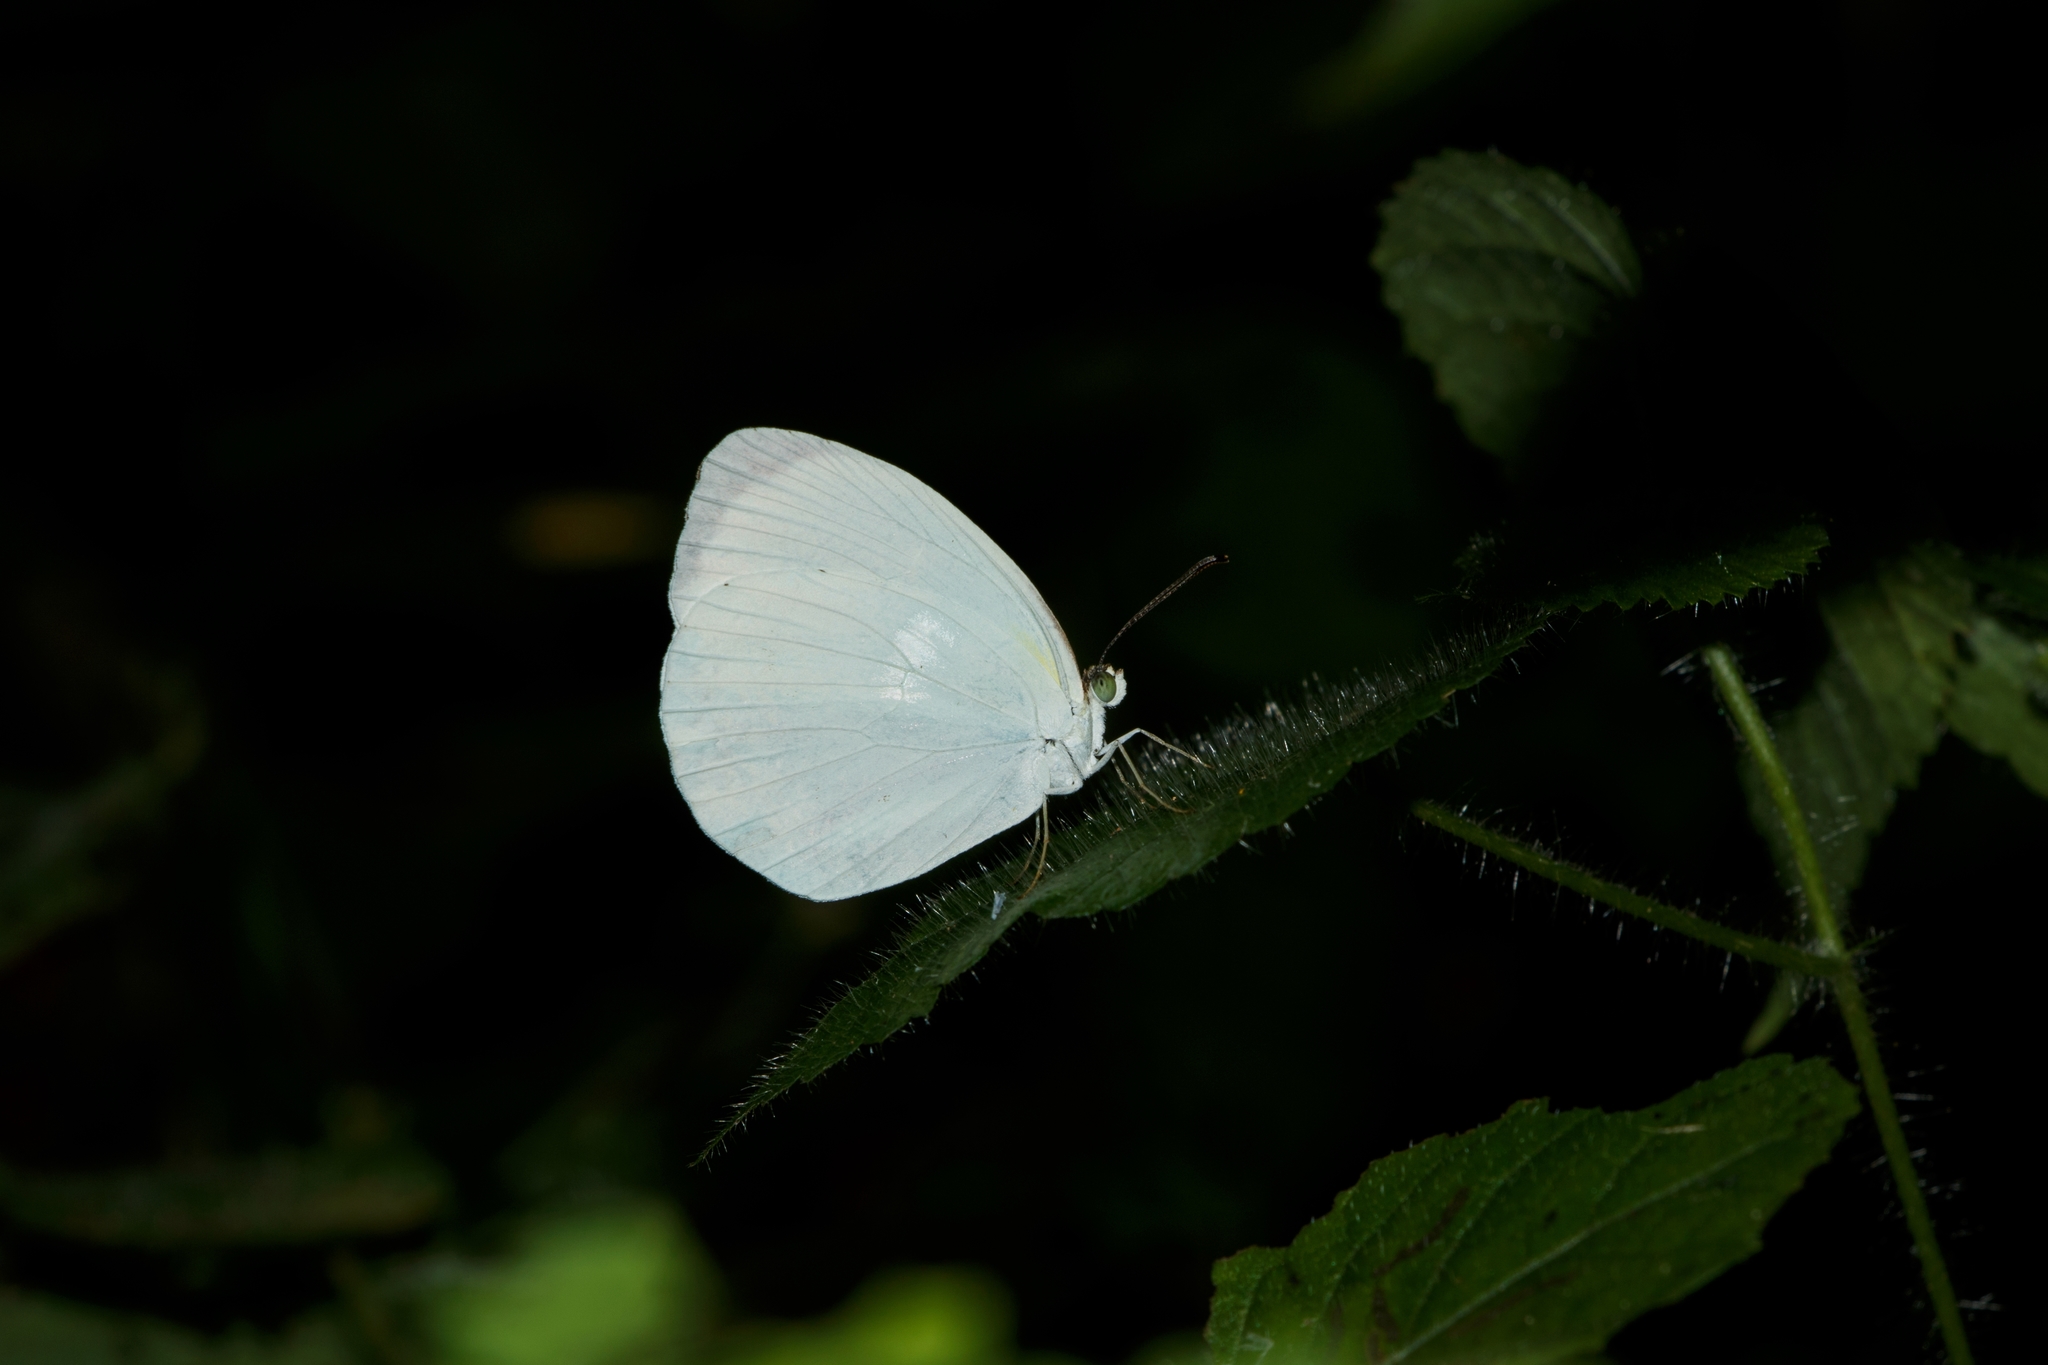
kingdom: Animalia
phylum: Arthropoda
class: Insecta
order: Lepidoptera
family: Pieridae
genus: Abaeis
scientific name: Abaeis albula
